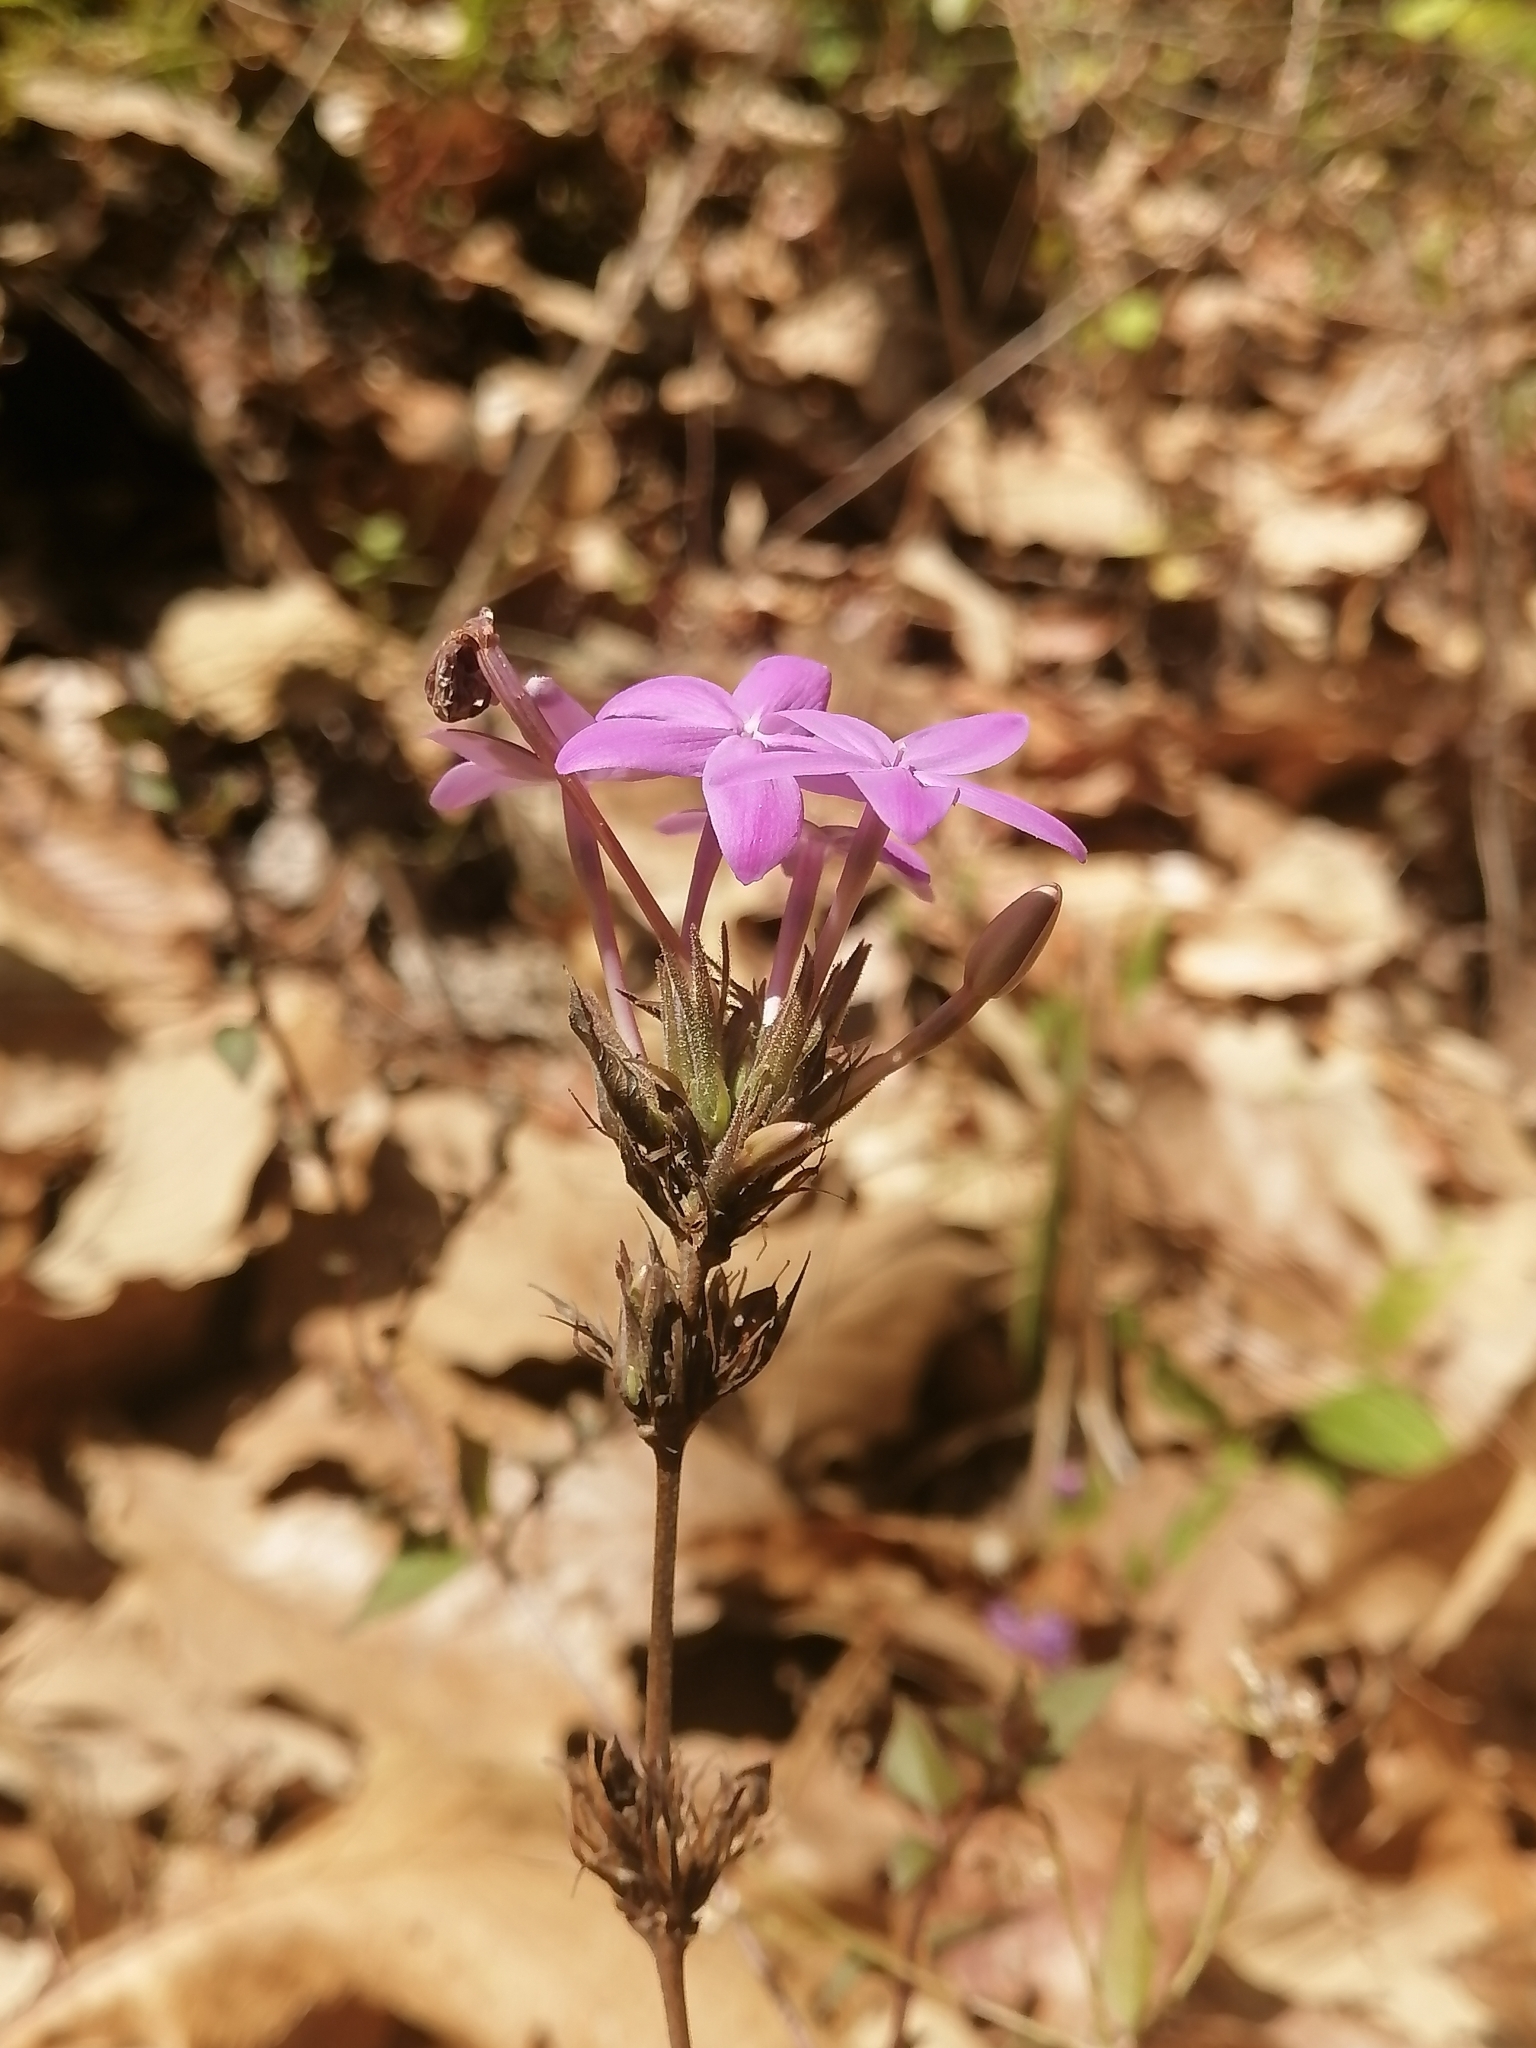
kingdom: Plantae
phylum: Tracheophyta
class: Magnoliopsida
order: Lamiales
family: Acanthaceae
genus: Pseuderanthemum
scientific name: Pseuderanthemum praecox
